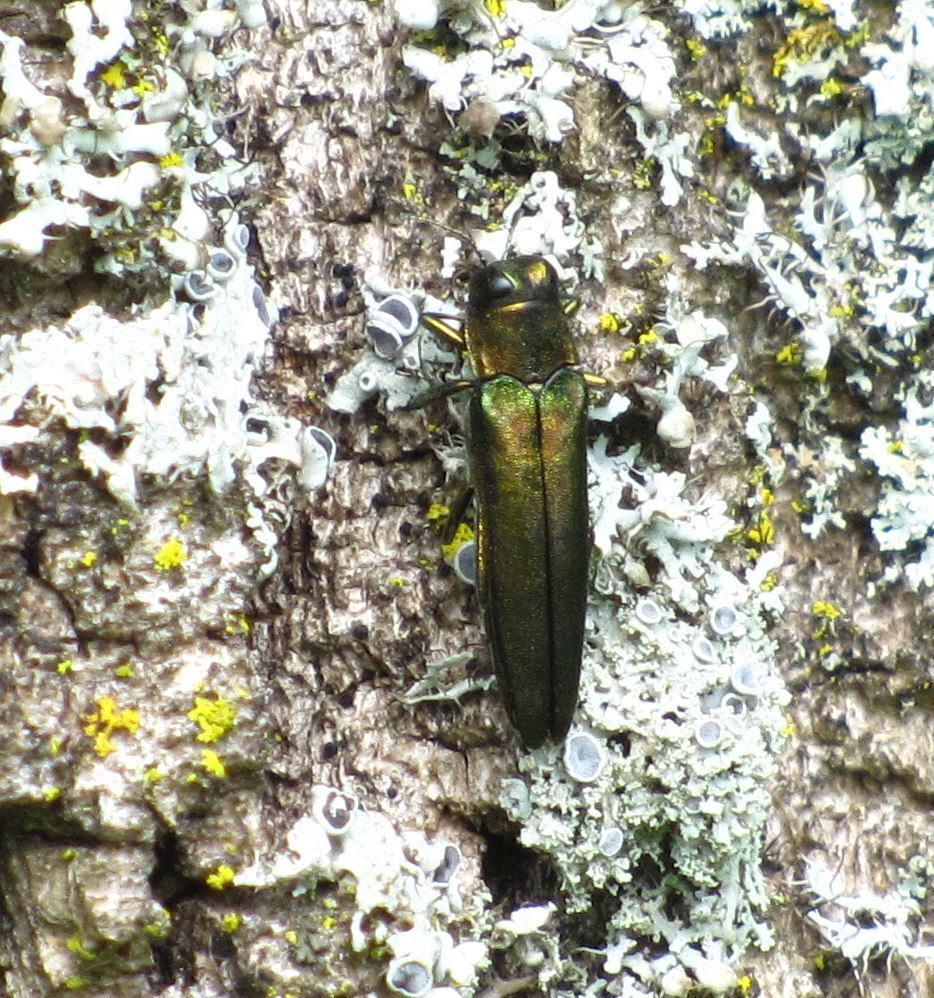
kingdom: Animalia
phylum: Arthropoda
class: Insecta
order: Coleoptera
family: Buprestidae
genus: Agrilus
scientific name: Agrilus planipennis
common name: Emerald ash borer
